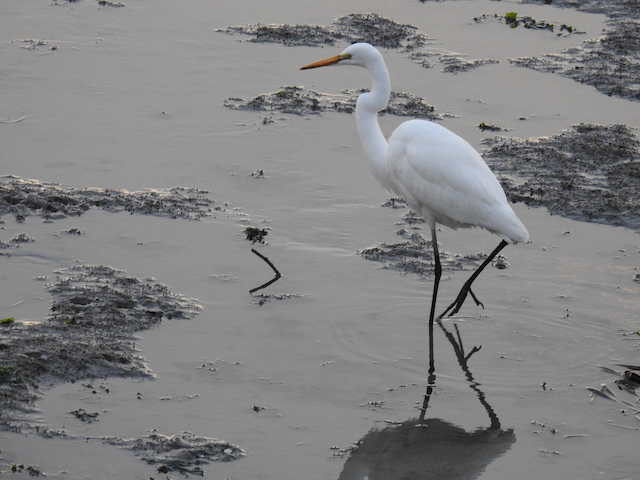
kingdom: Animalia
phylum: Chordata
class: Aves
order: Pelecaniformes
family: Ardeidae
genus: Ardea
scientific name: Ardea alba
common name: Great egret
